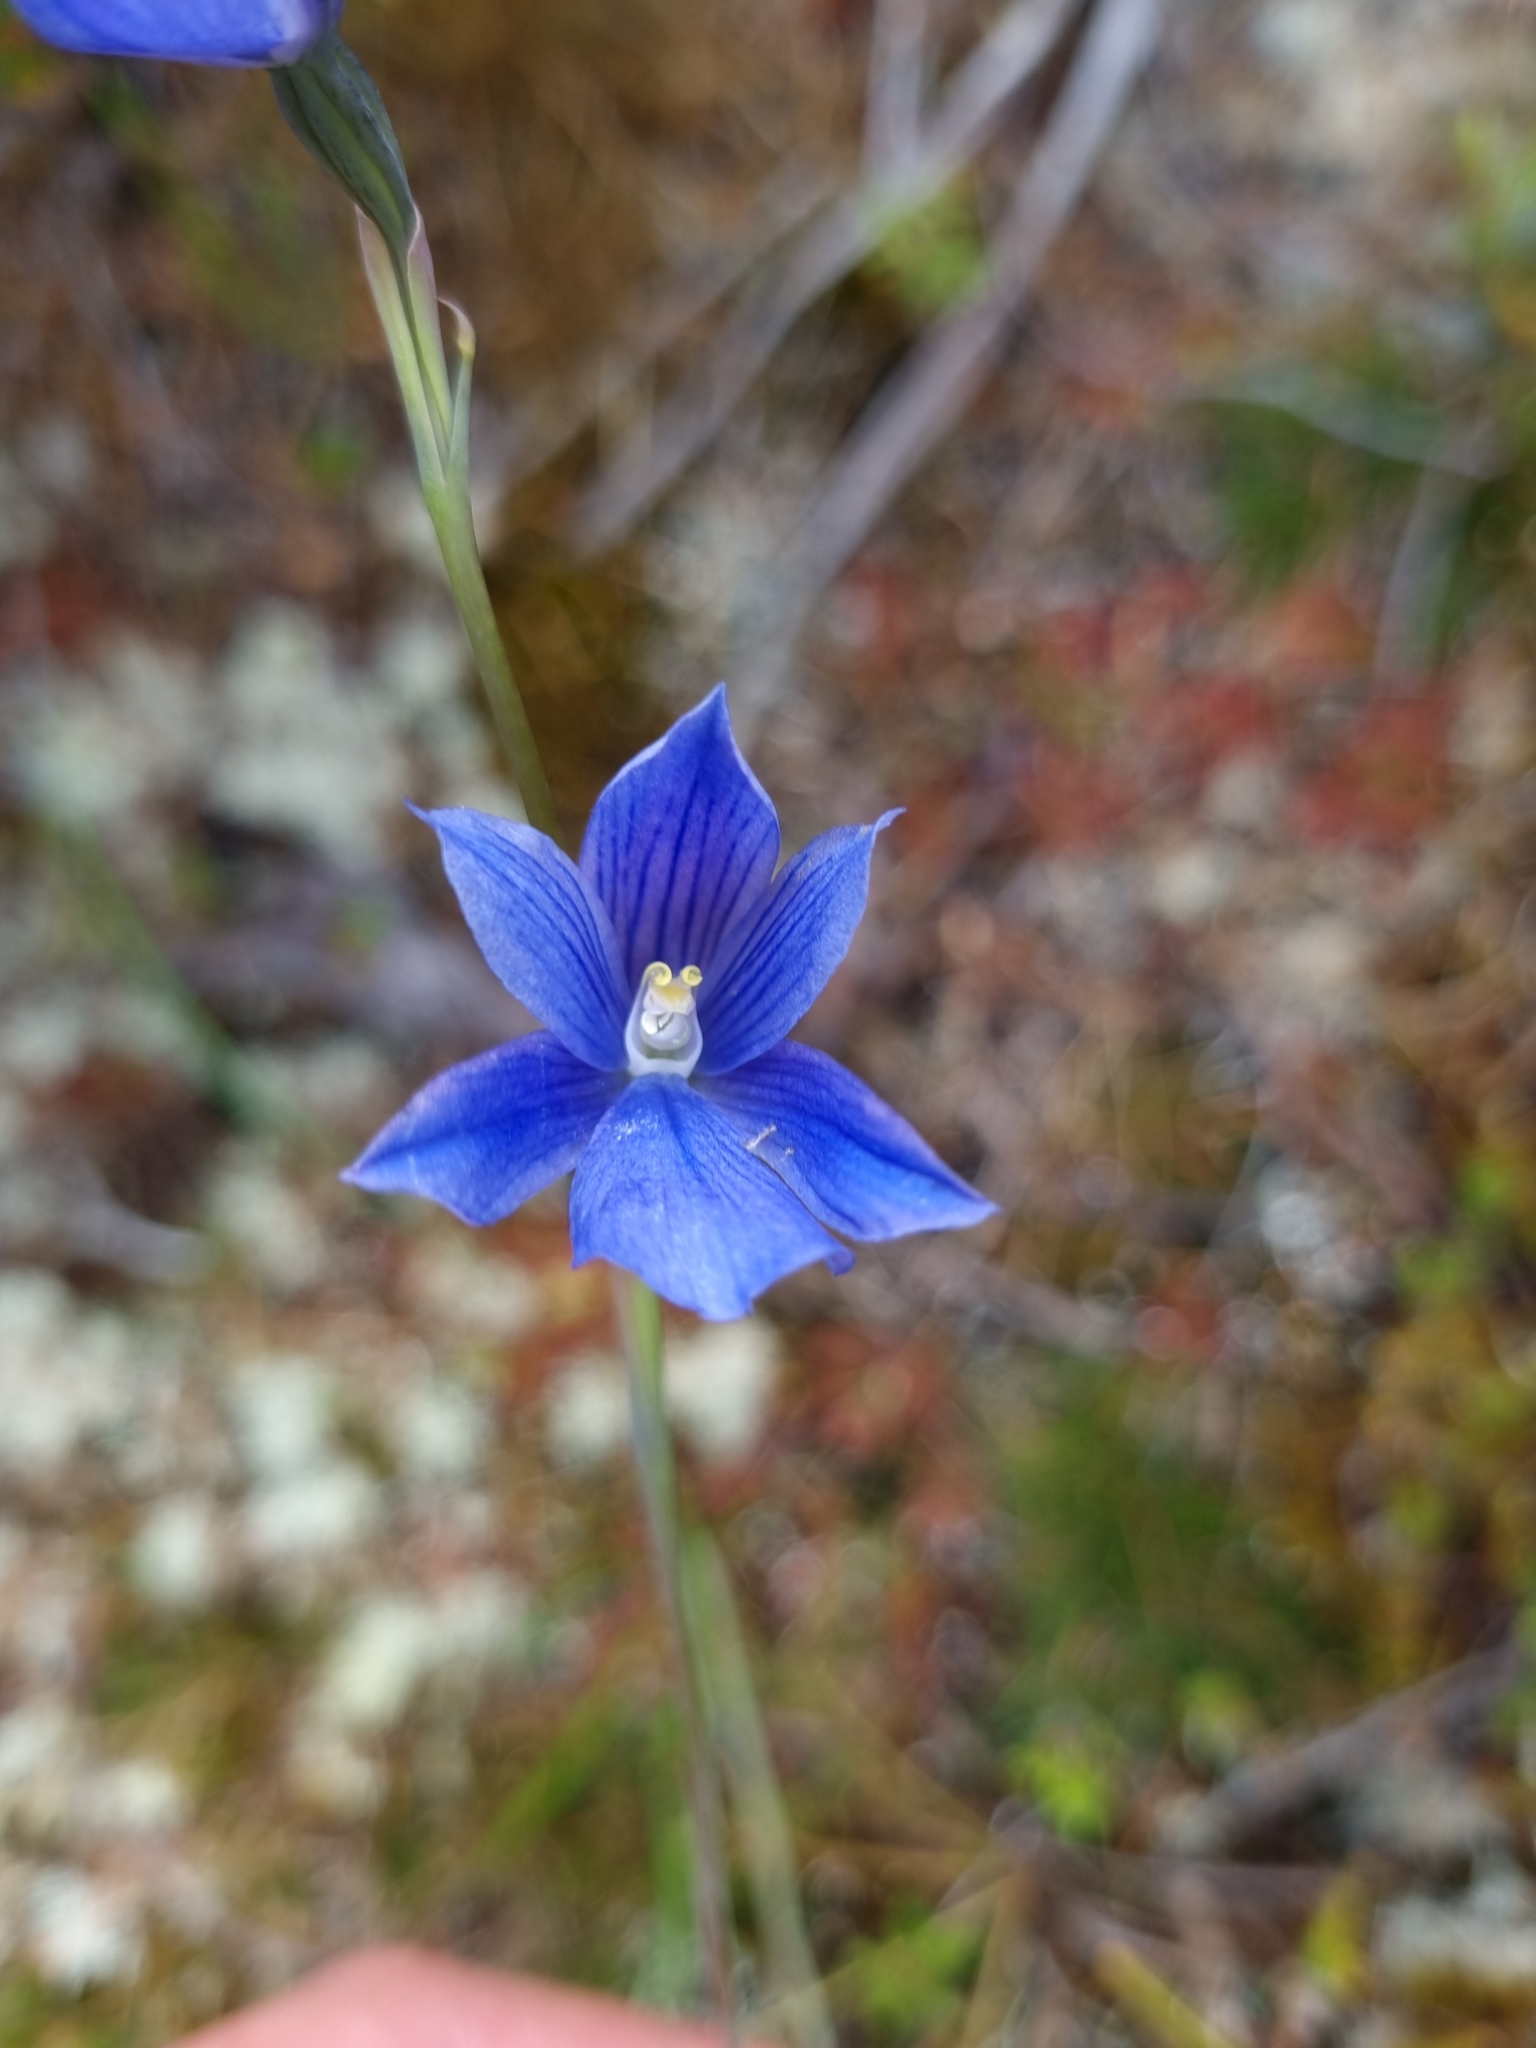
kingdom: Plantae
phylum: Tracheophyta
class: Liliopsida
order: Asparagales
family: Orchidaceae
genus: Thelymitra
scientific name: Thelymitra cyanea
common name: Blue sun-orchid
